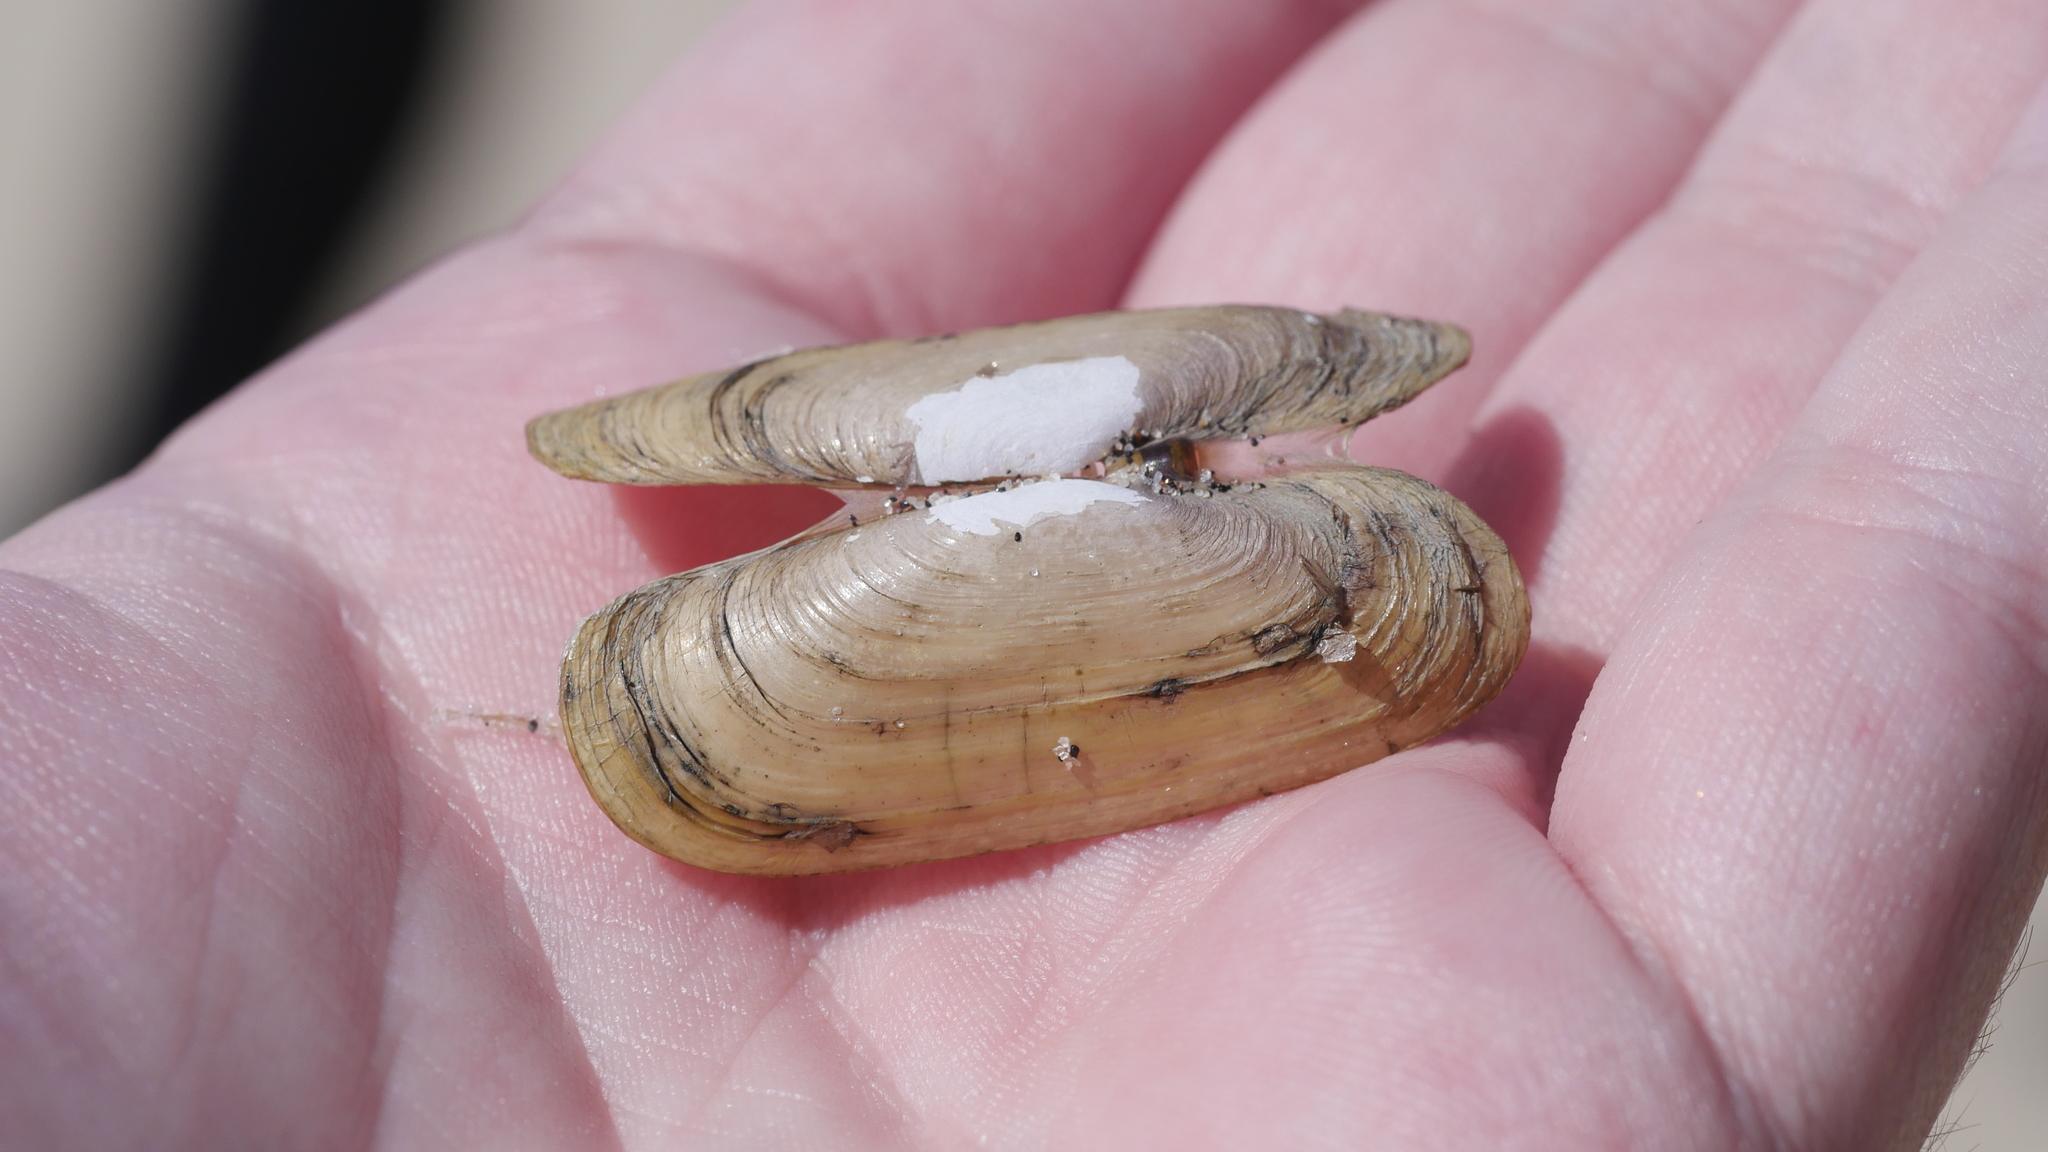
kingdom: Animalia
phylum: Mollusca
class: Bivalvia
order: Cardiida
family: Solecurtidae
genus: Tagelus
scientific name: Tagelus plebeius
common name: Stout tagelus
